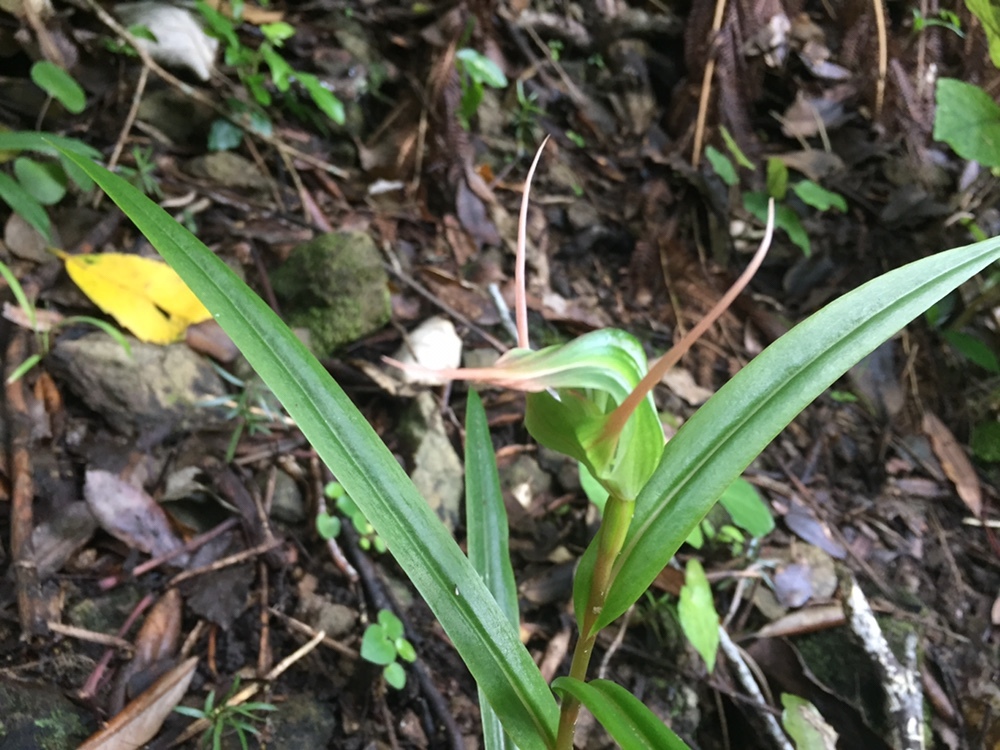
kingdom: Plantae
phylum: Tracheophyta
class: Liliopsida
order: Asparagales
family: Orchidaceae
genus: Pterostylis
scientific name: Pterostylis banksii
